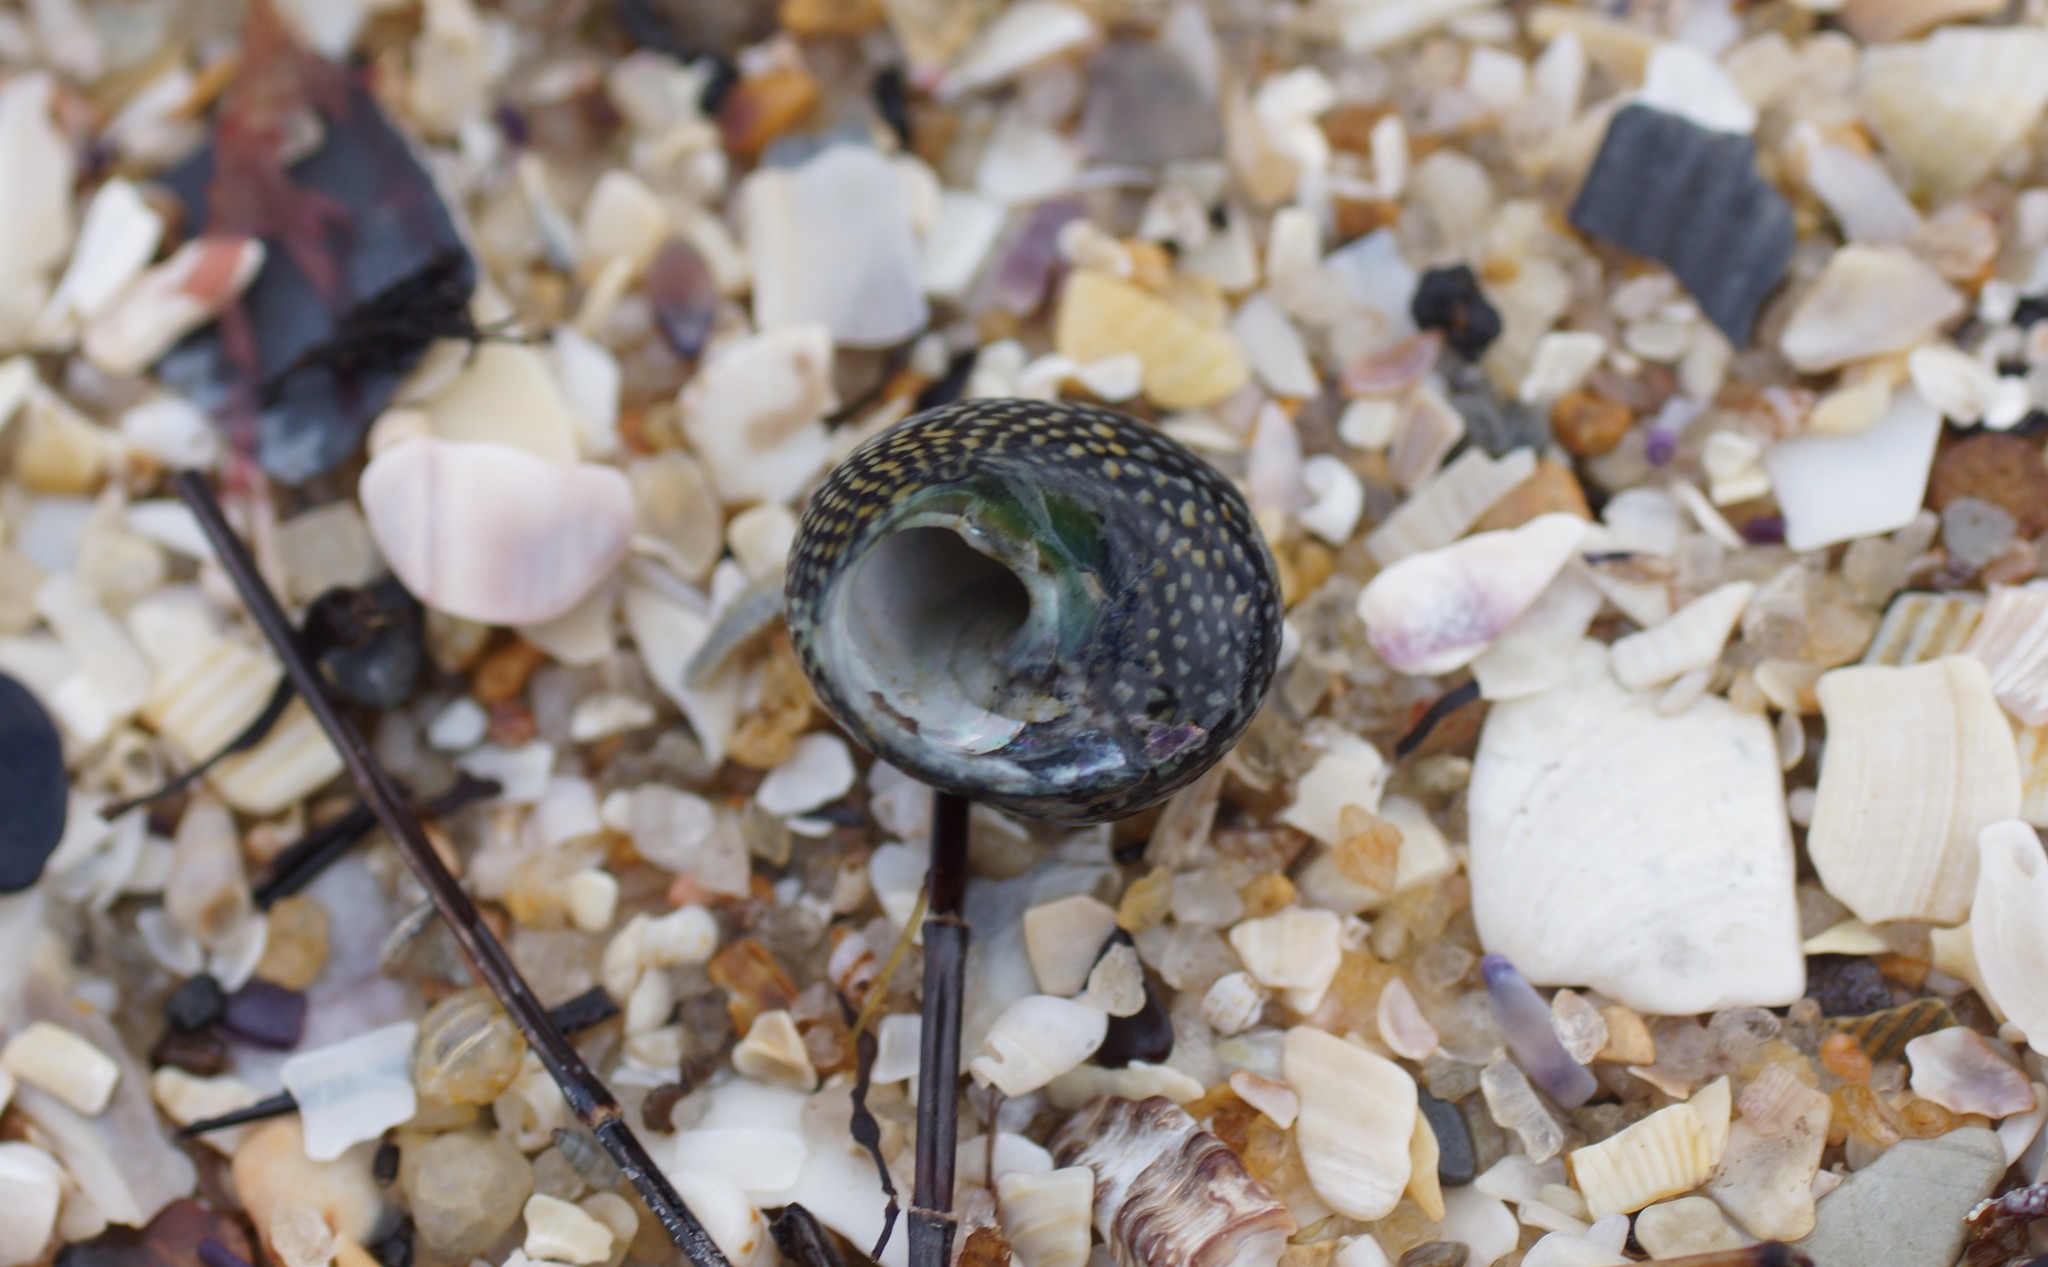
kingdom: Animalia
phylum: Mollusca
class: Gastropoda
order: Trochida
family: Trochidae
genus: Chlorodiloma
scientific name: Chlorodiloma odontis
